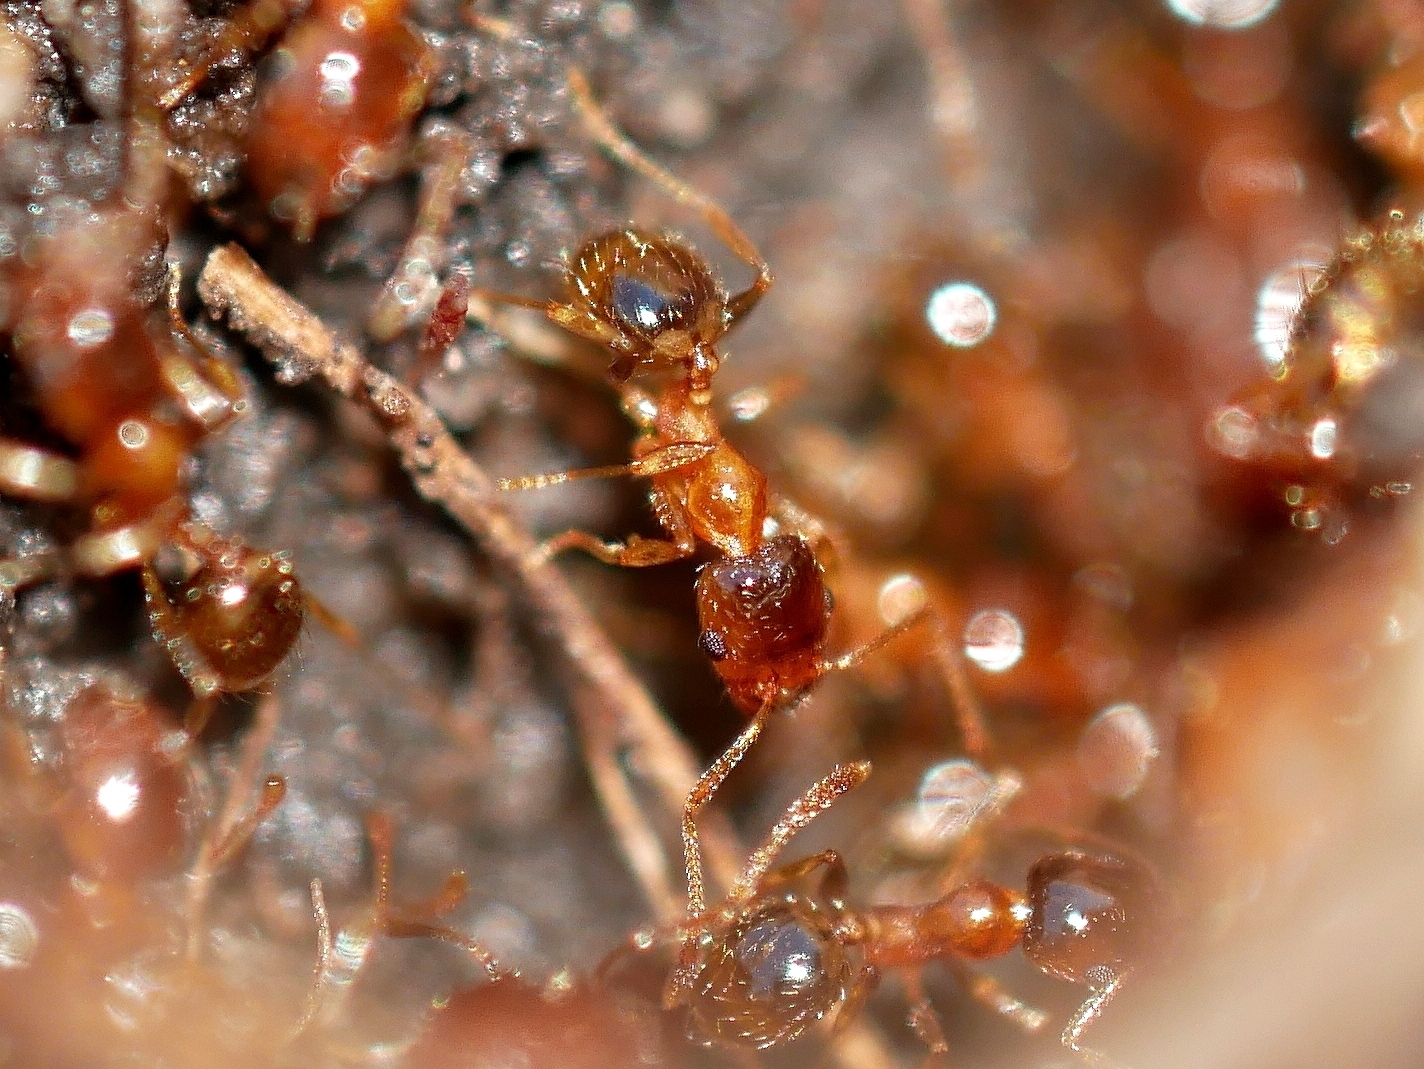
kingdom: Animalia
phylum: Arthropoda
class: Insecta
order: Hymenoptera
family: Formicidae
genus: Pheidole
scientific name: Pheidole californica
